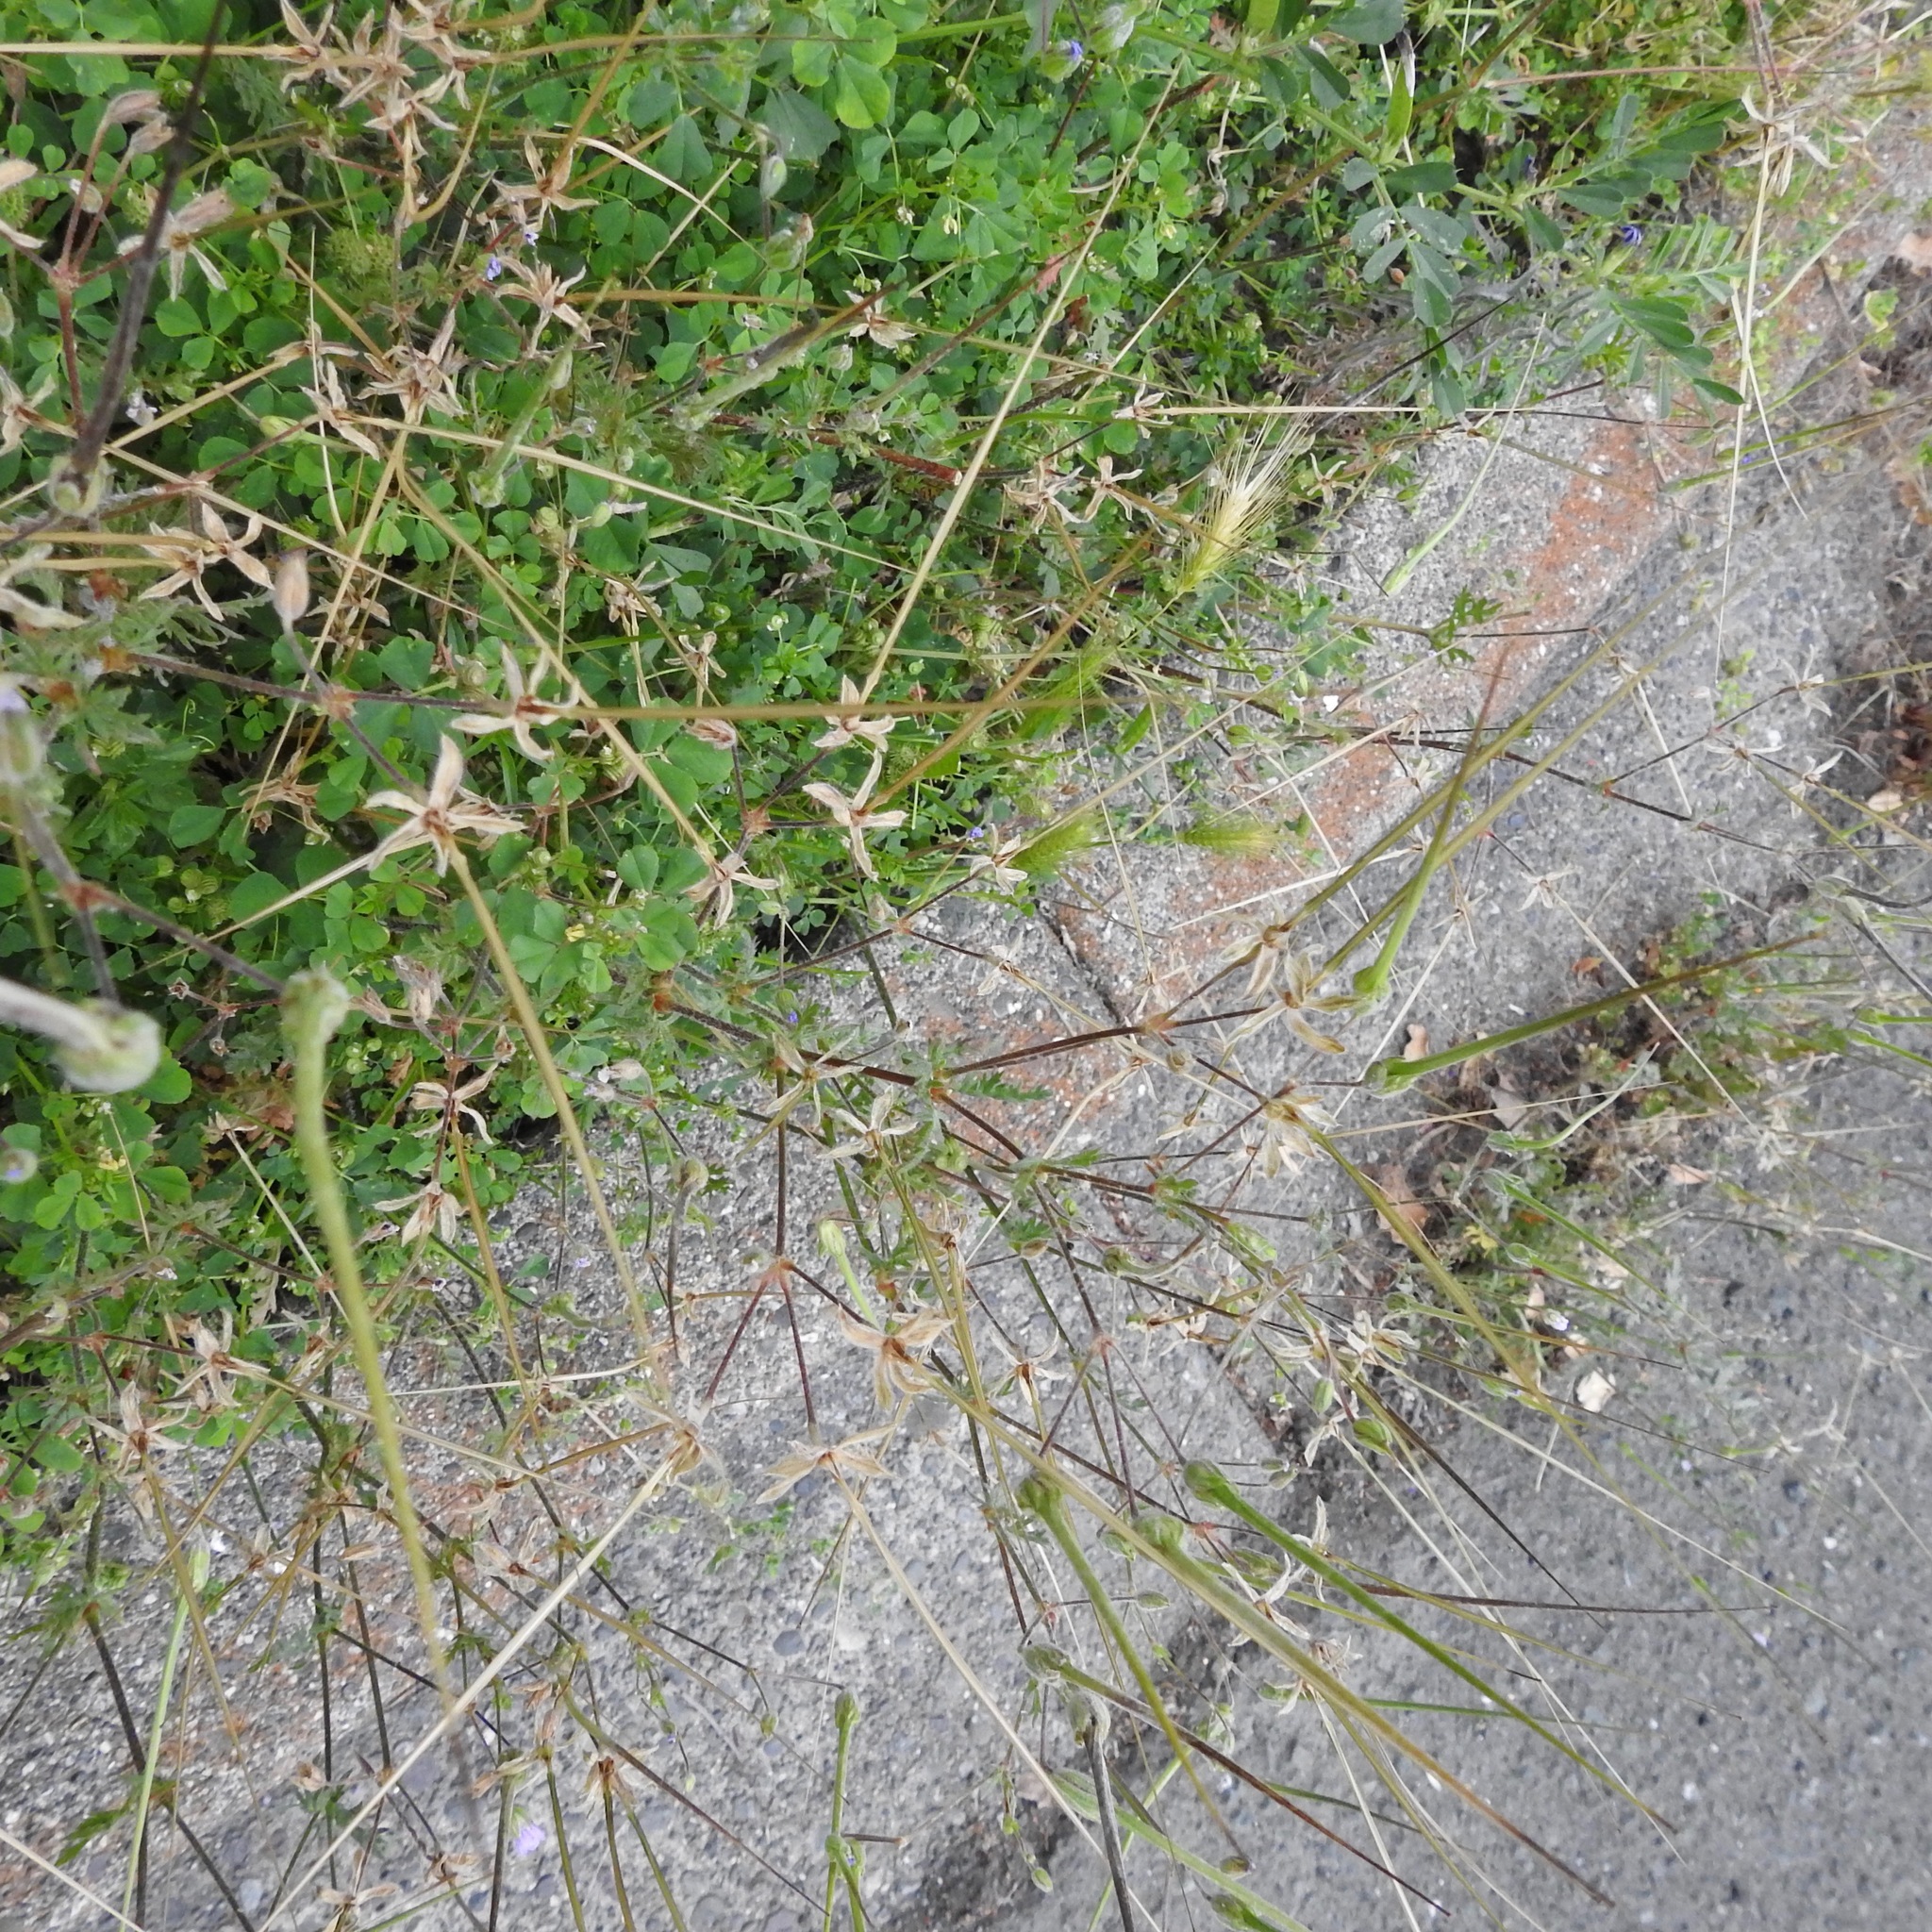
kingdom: Plantae
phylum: Tracheophyta
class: Magnoliopsida
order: Geraniales
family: Geraniaceae
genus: Erodium
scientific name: Erodium botrys
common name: Mediterranean stork's-bill
